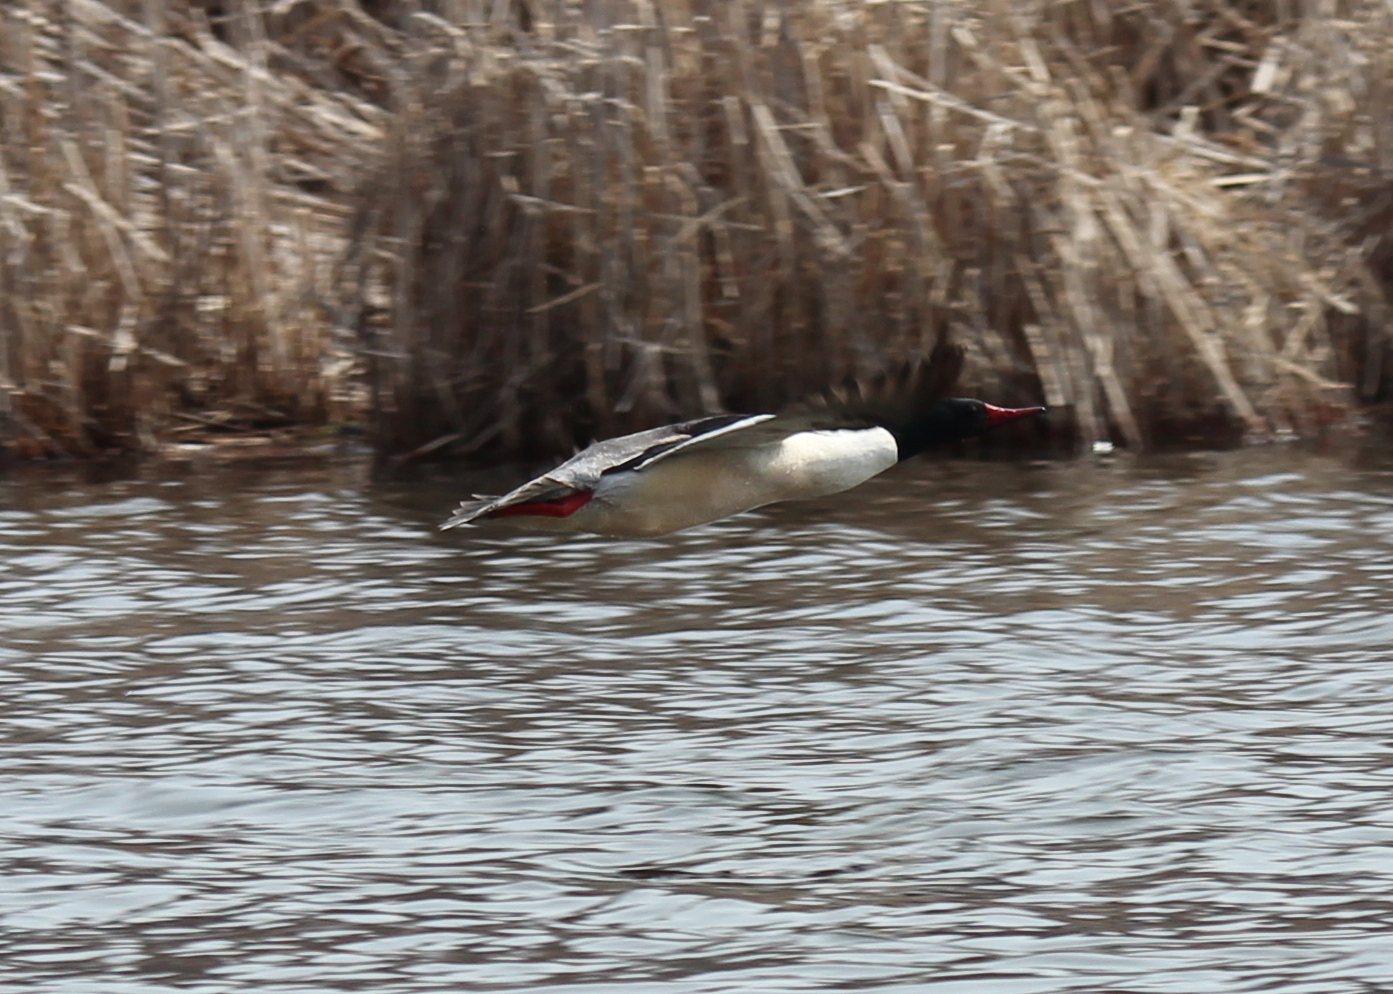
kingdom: Animalia
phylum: Chordata
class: Aves
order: Anseriformes
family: Anatidae
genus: Mergus
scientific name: Mergus merganser
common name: Common merganser
